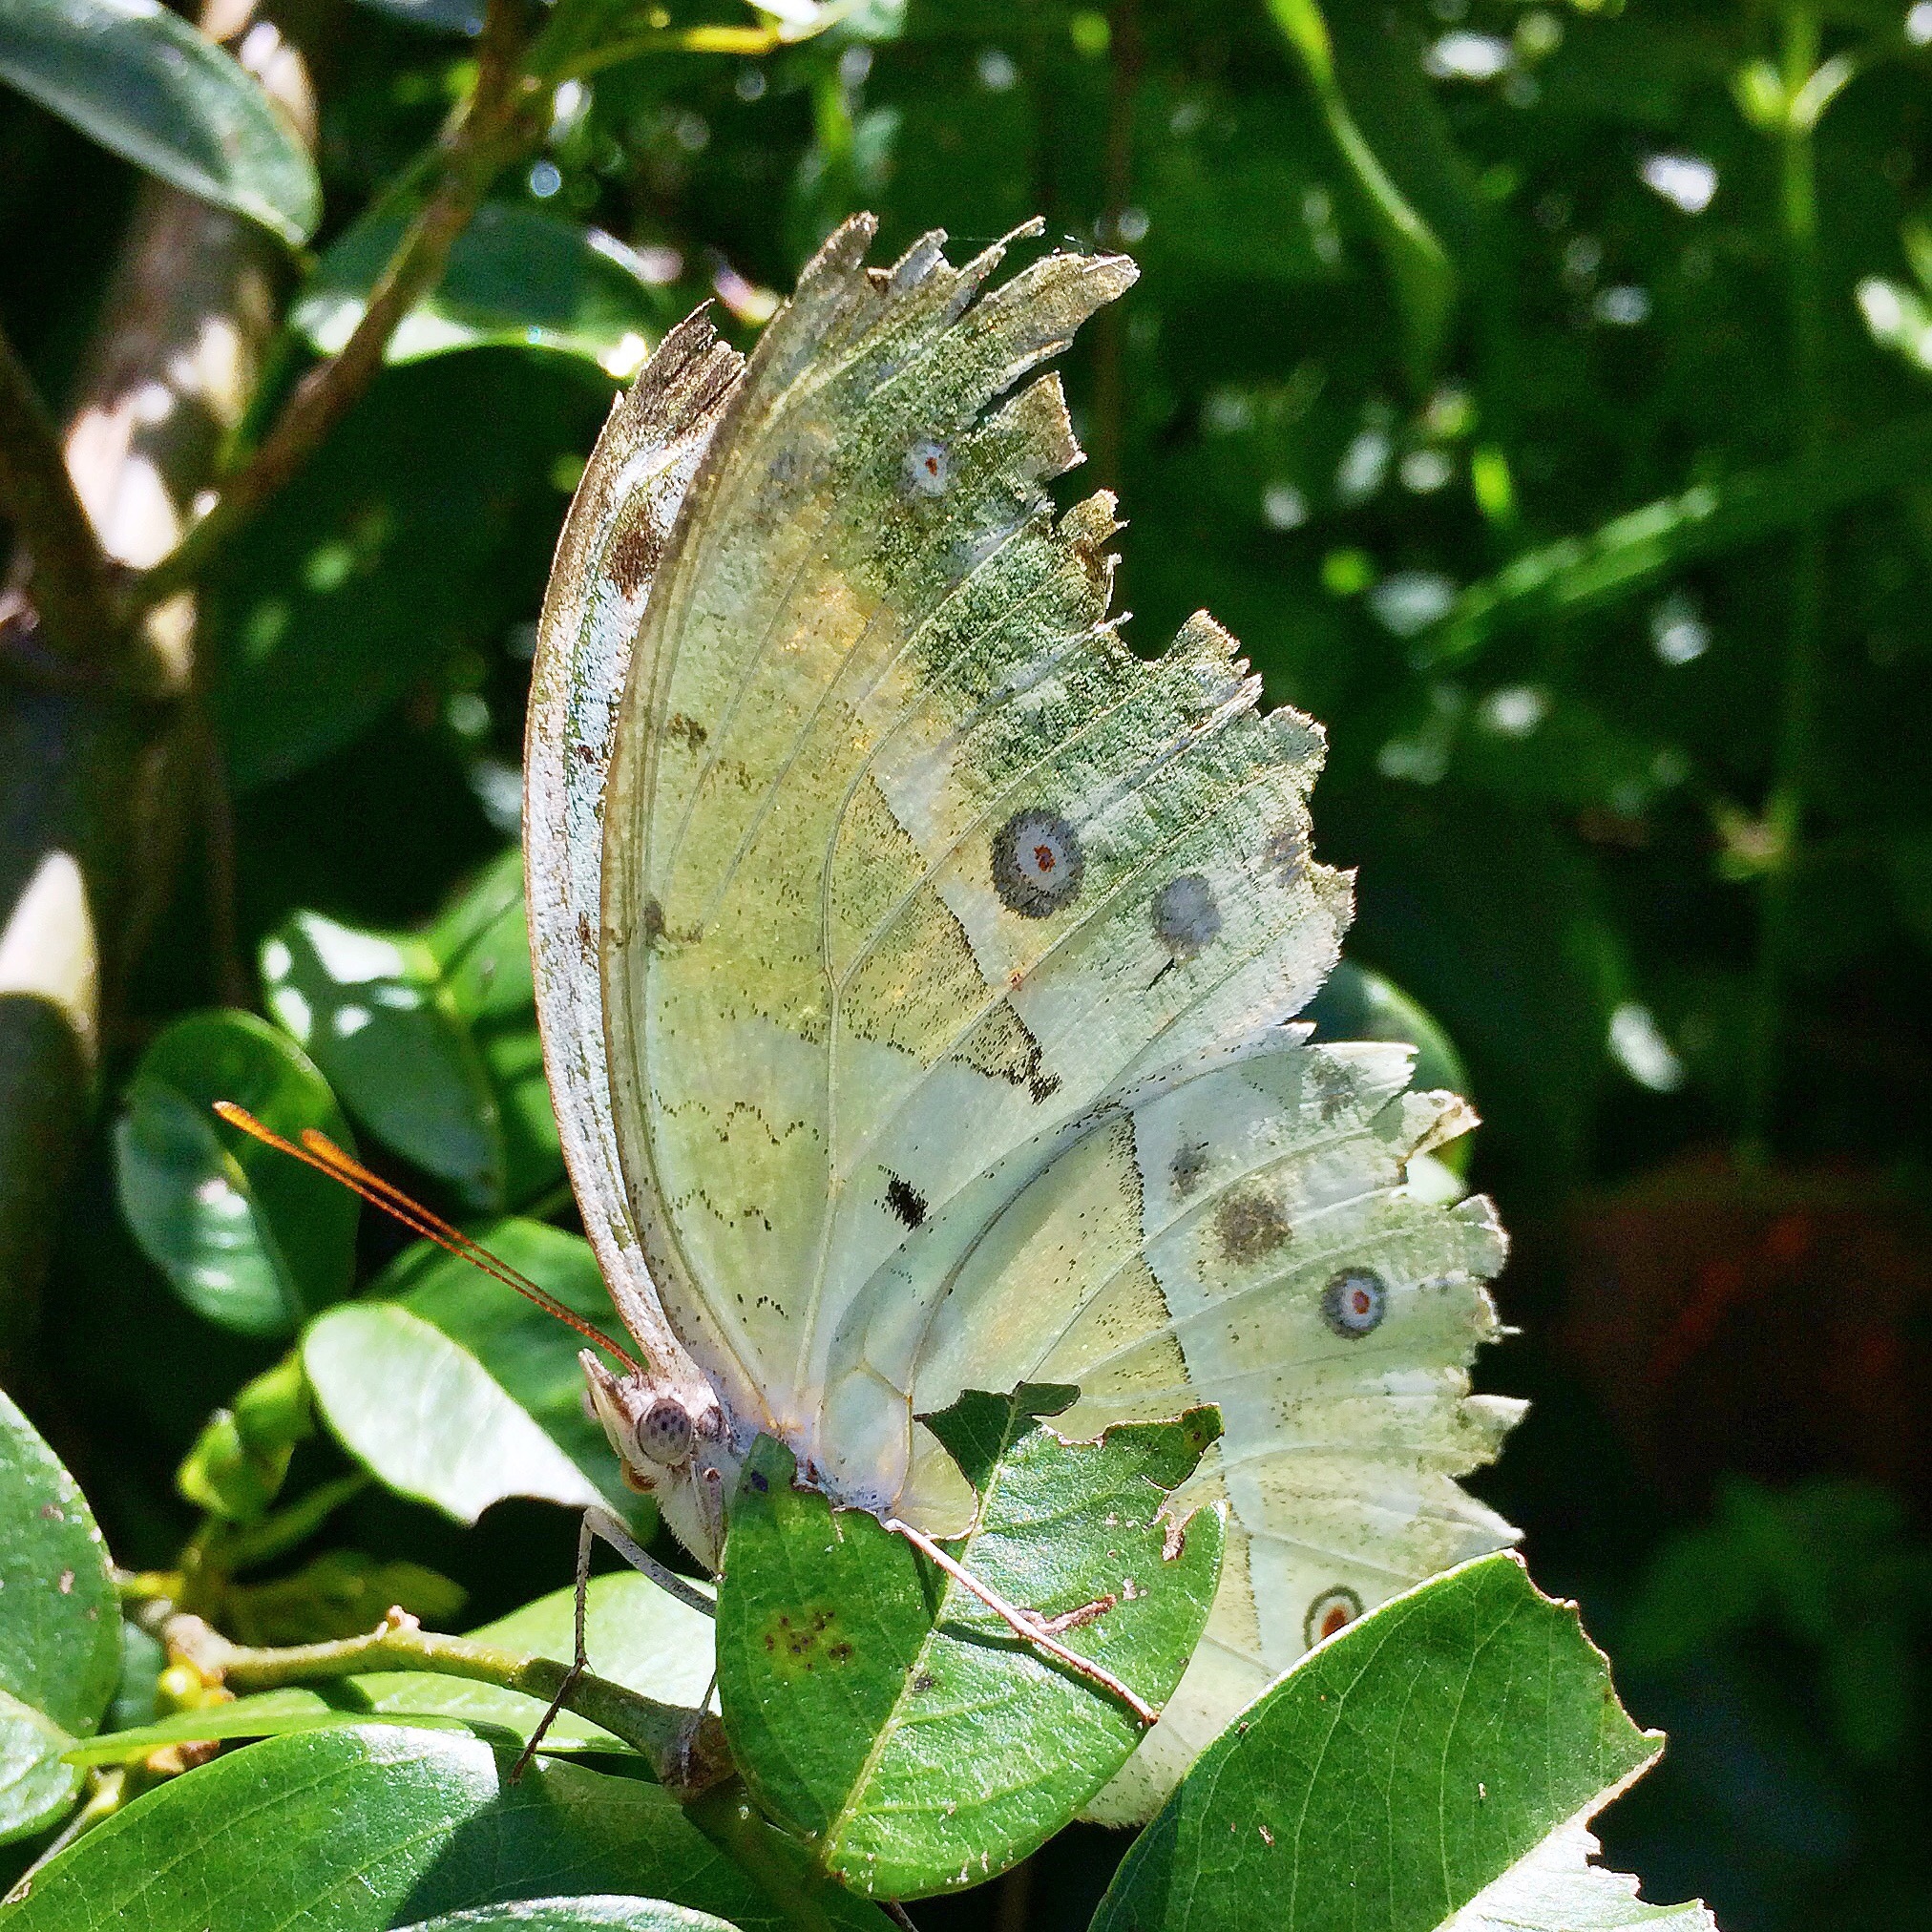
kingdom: Animalia
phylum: Arthropoda
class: Insecta
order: Lepidoptera
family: Nymphalidae
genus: Salamis
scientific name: Salamis Protogoniomorpha parhassus
